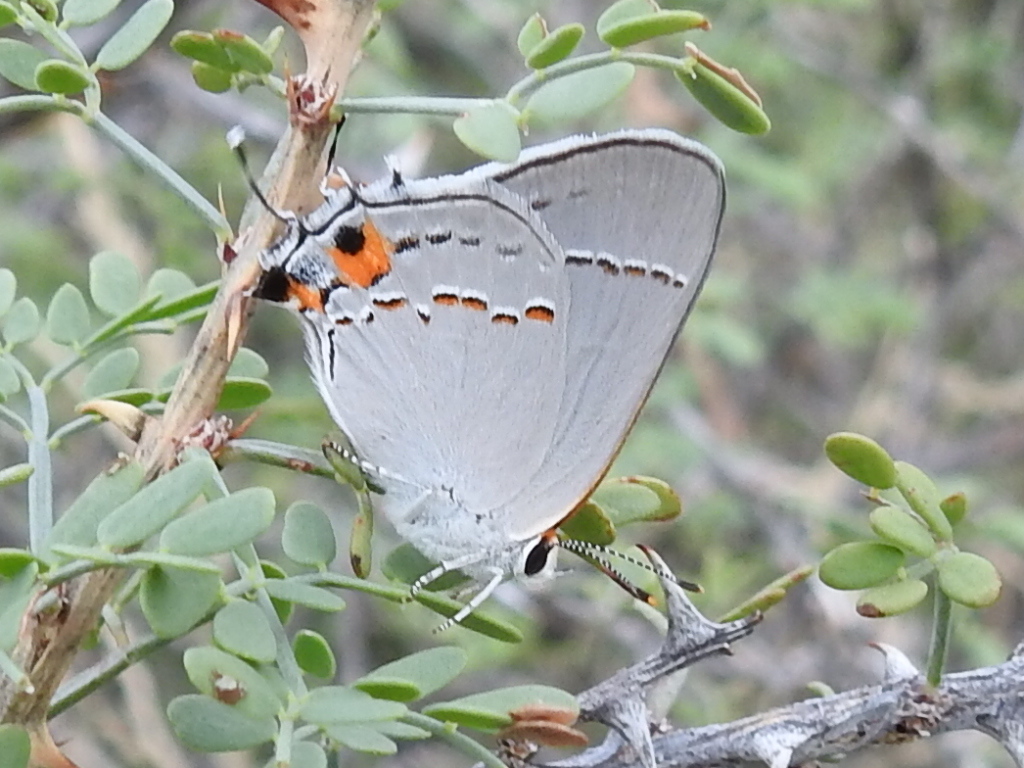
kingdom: Animalia
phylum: Arthropoda
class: Insecta
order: Lepidoptera
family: Lycaenidae
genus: Strymon
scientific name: Strymon melinus
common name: Gray hairstreak
